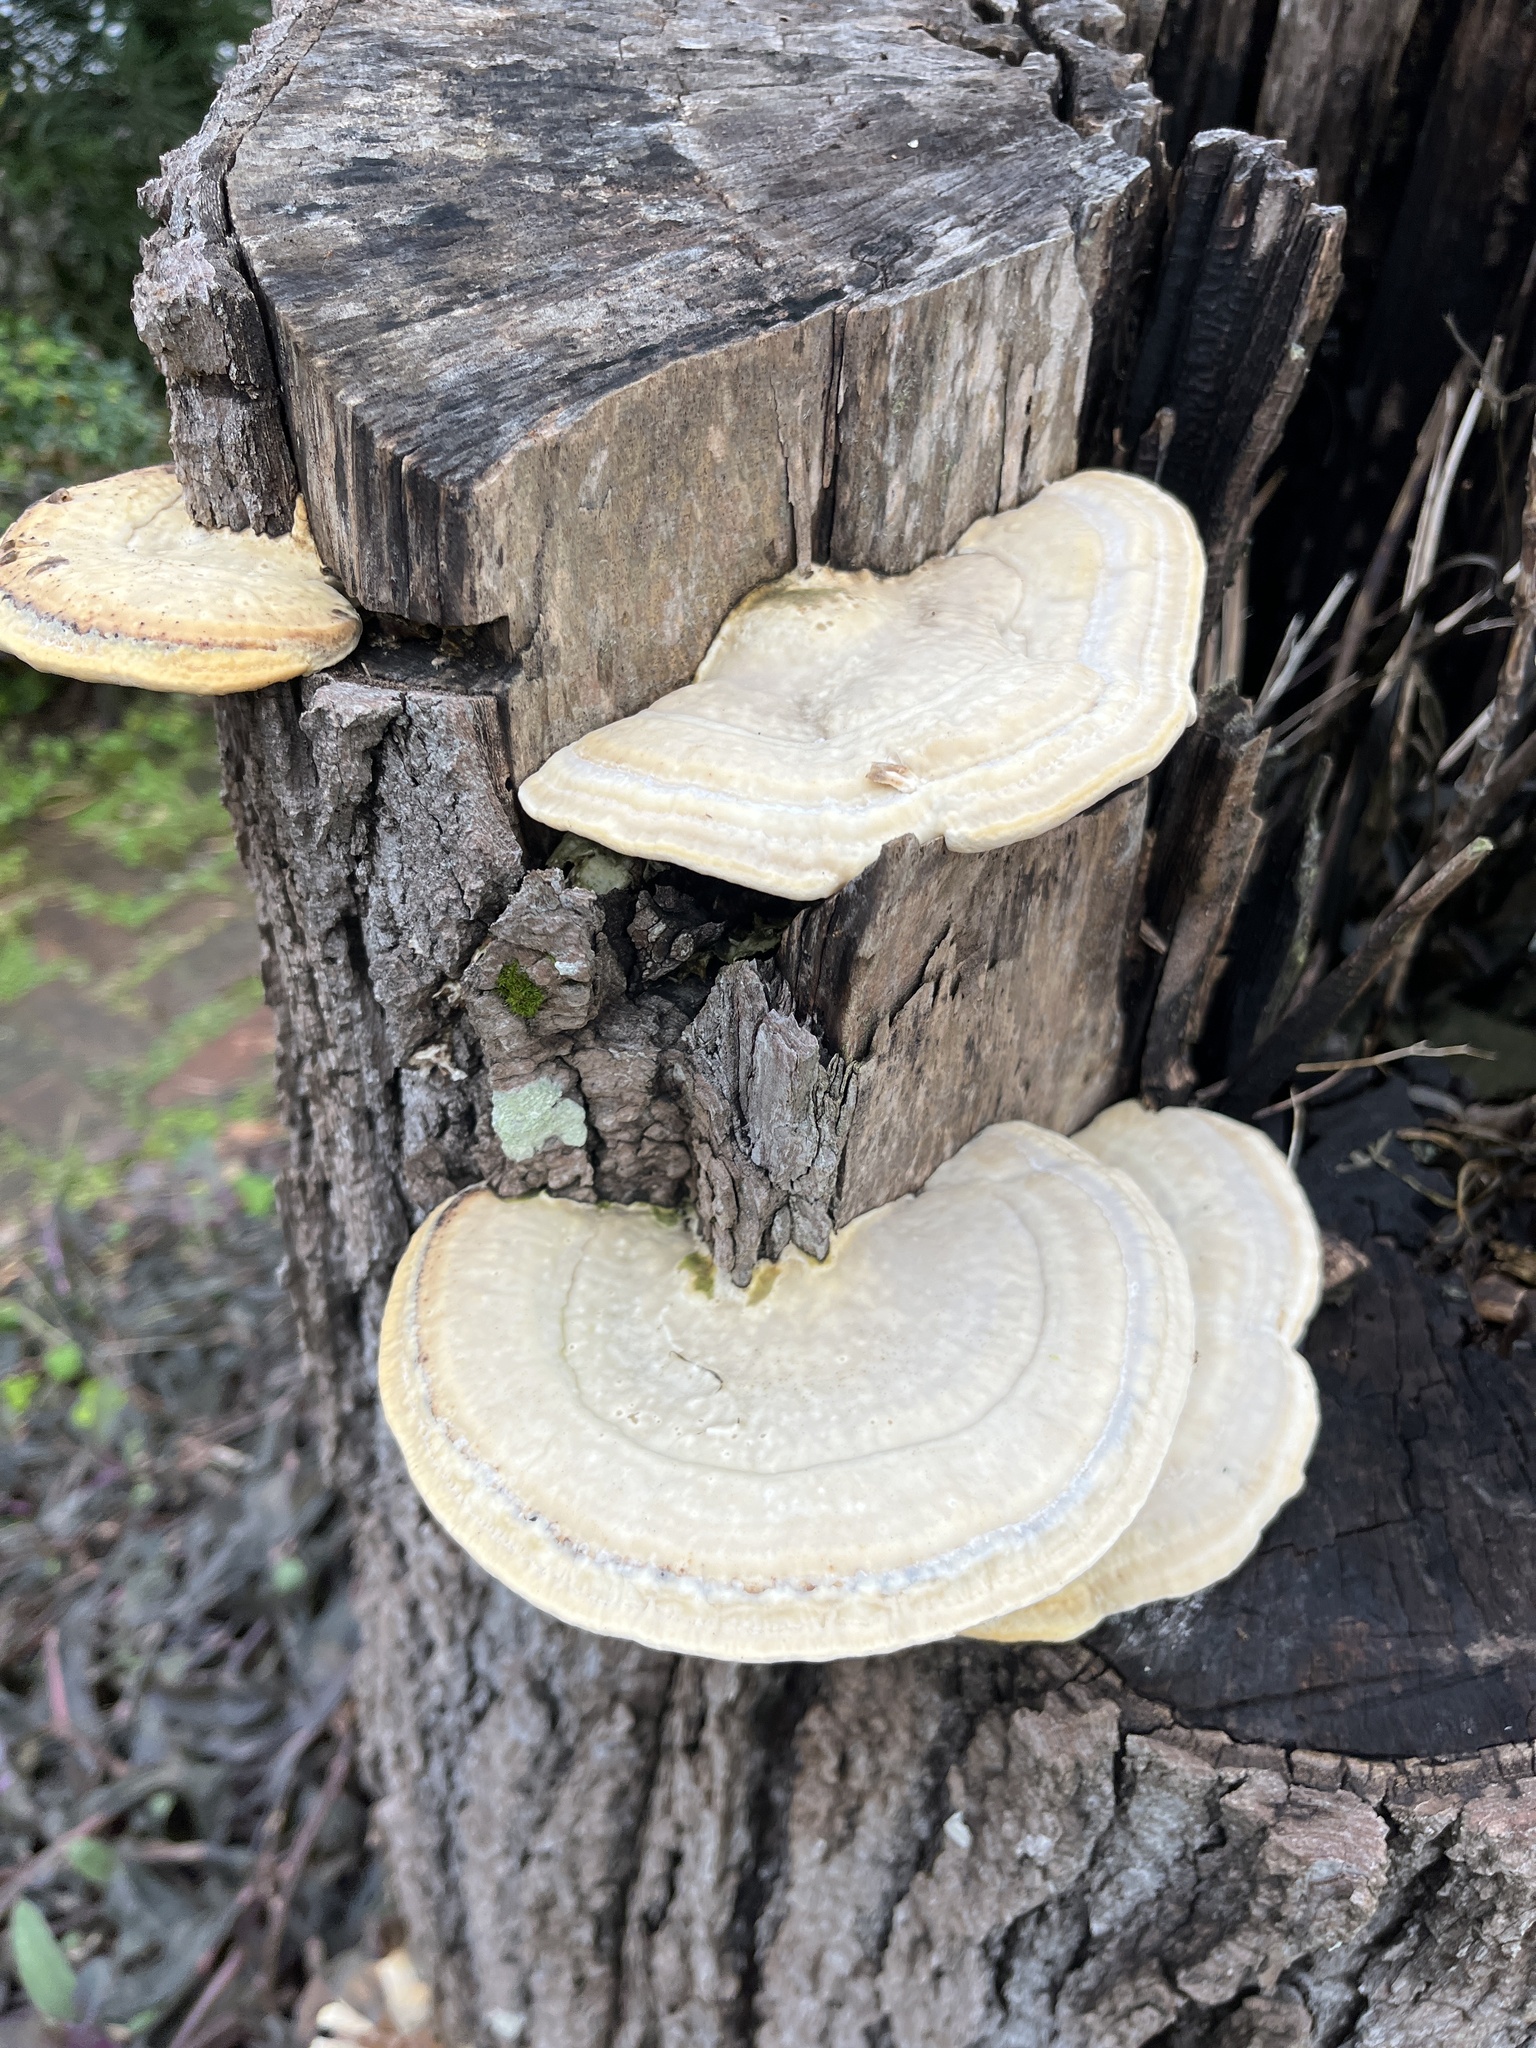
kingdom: Fungi
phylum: Basidiomycota
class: Agaricomycetes
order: Polyporales
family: Polyporaceae
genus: Trametes
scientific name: Trametes lactinea
